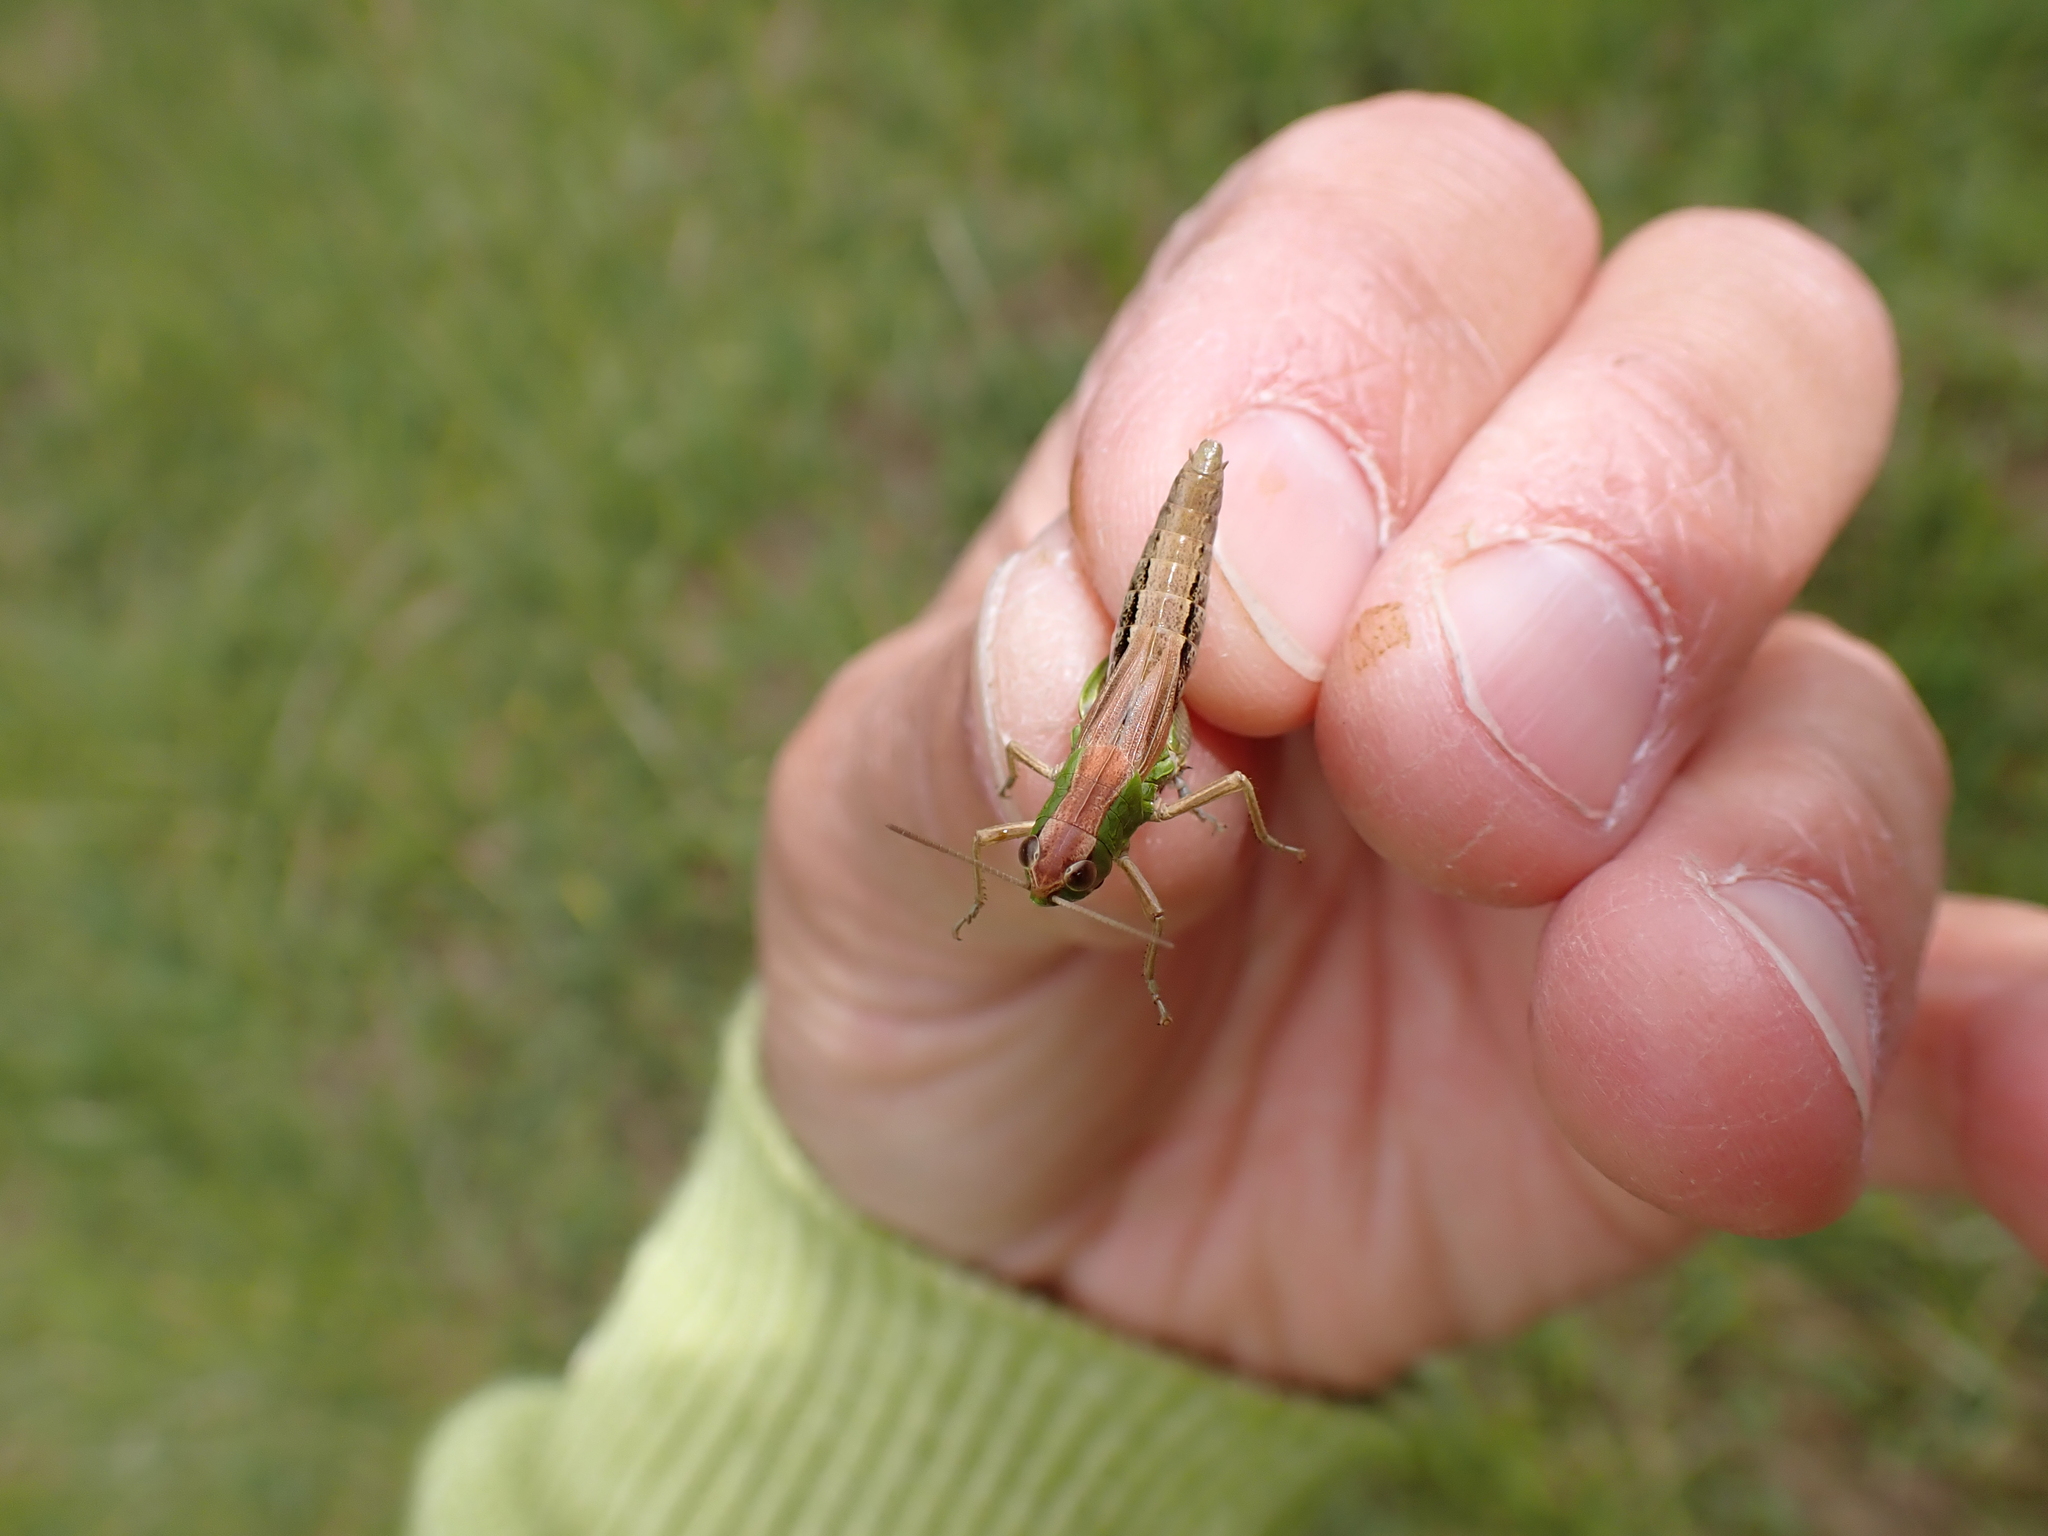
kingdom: Animalia
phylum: Arthropoda
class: Insecta
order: Orthoptera
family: Acrididae
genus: Pseudochorthippus
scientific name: Pseudochorthippus parallelus
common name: Meadow grasshopper
